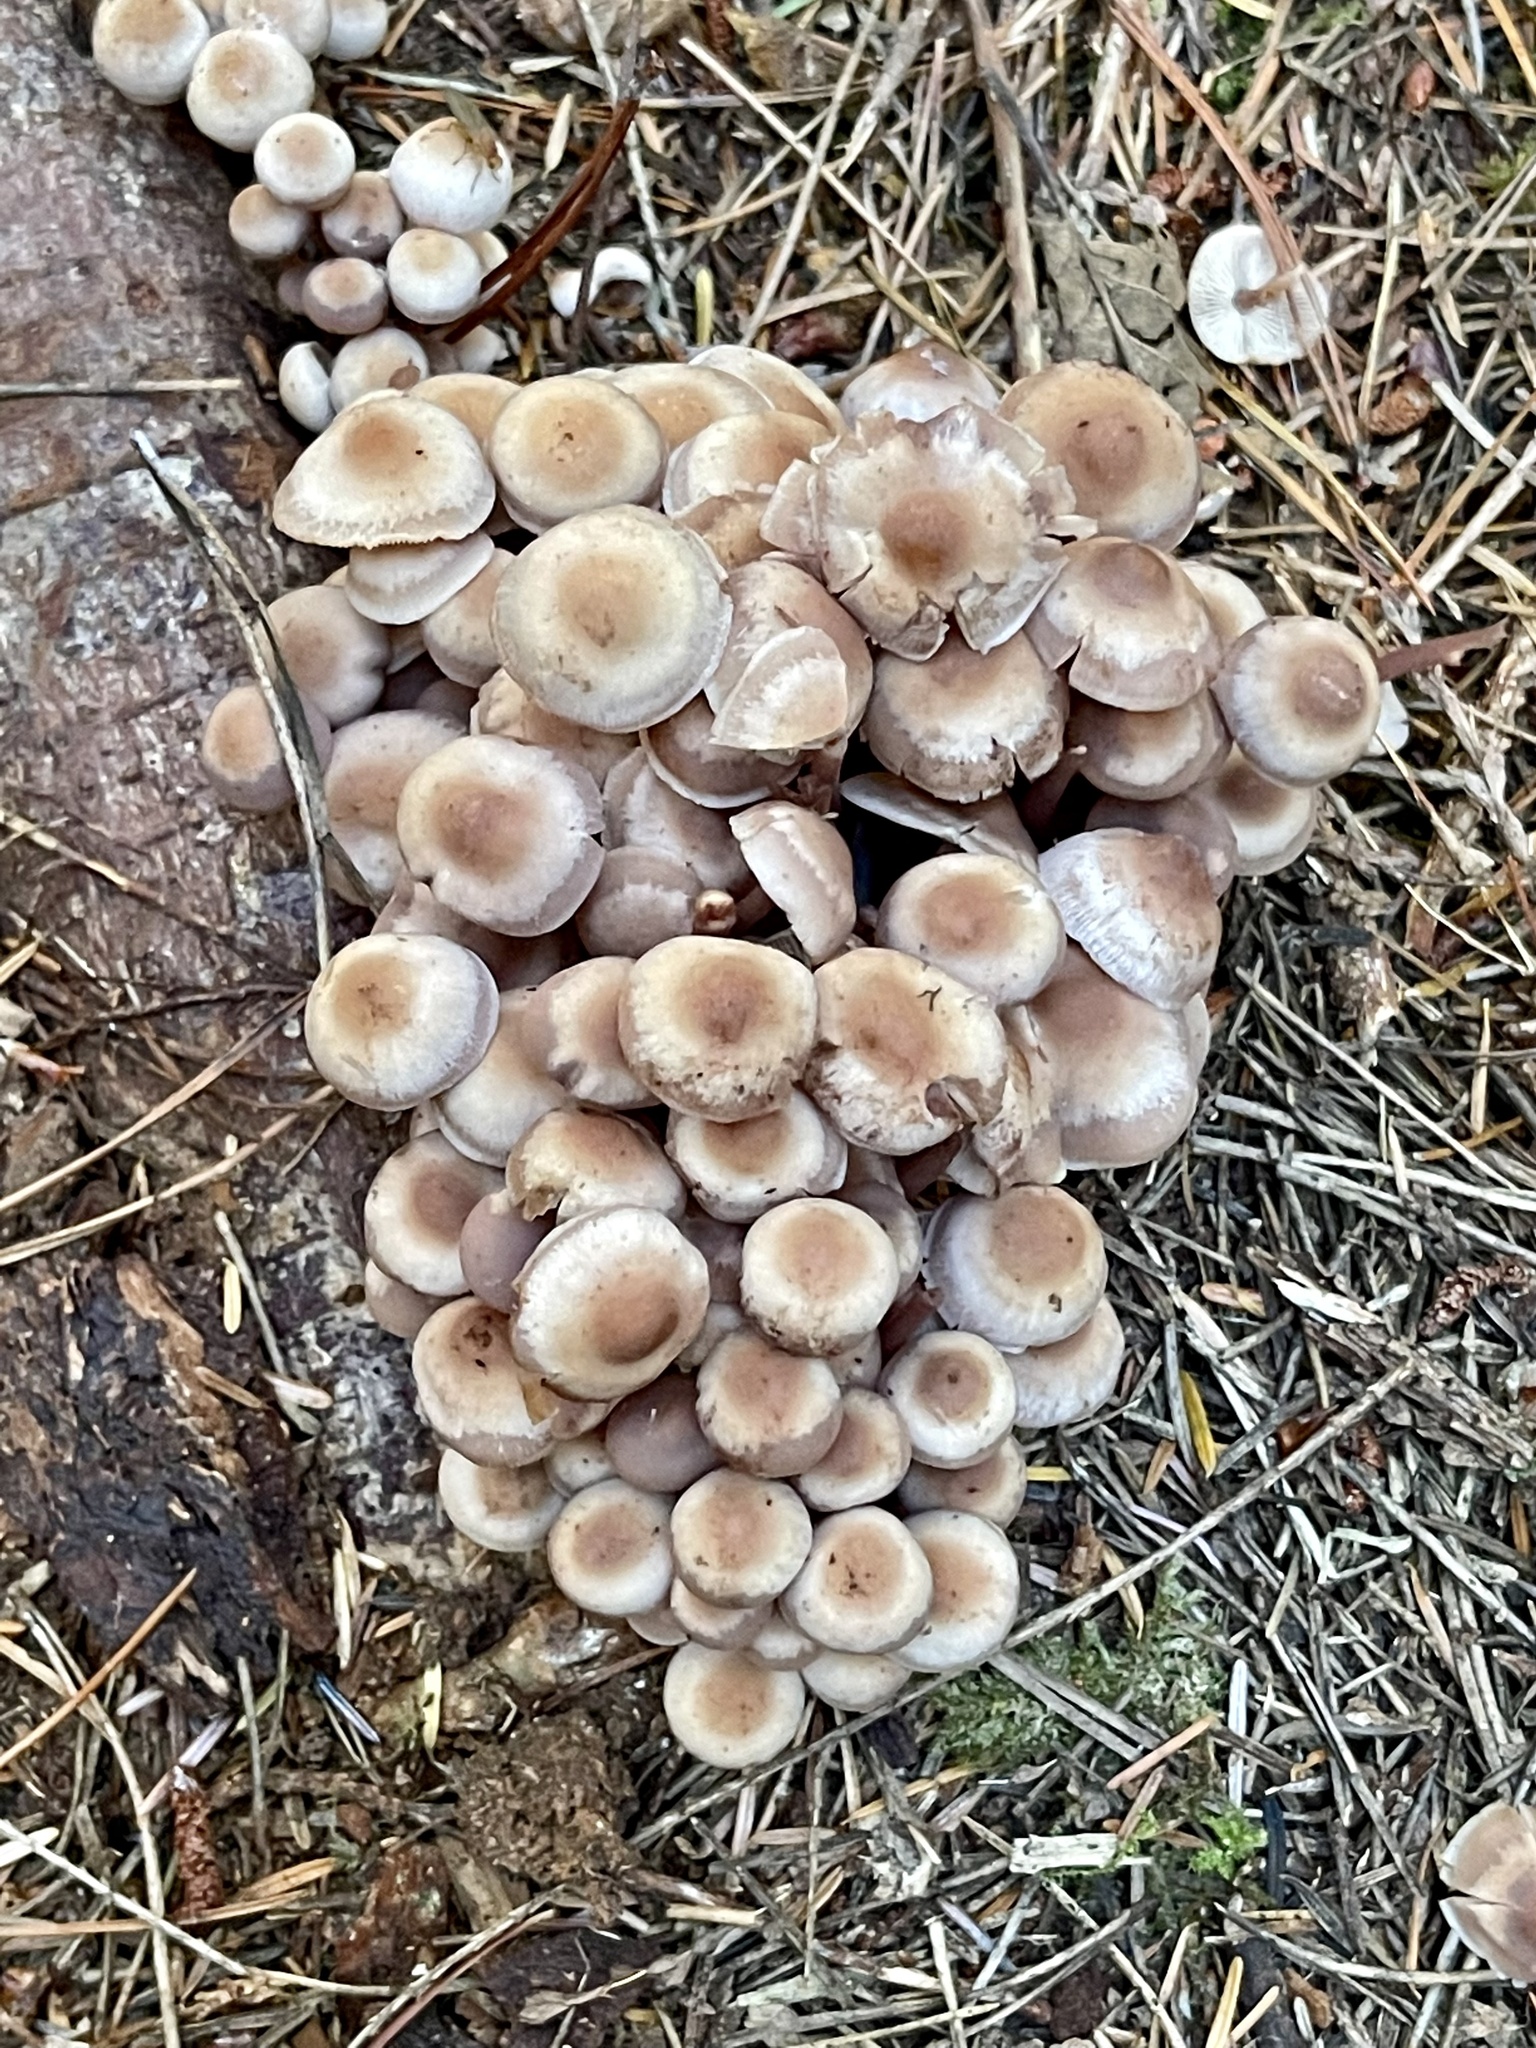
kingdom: Fungi
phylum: Basidiomycota
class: Agaricomycetes
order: Agaricales
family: Strophariaceae
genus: Pholiota
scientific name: Pholiota terrestris
